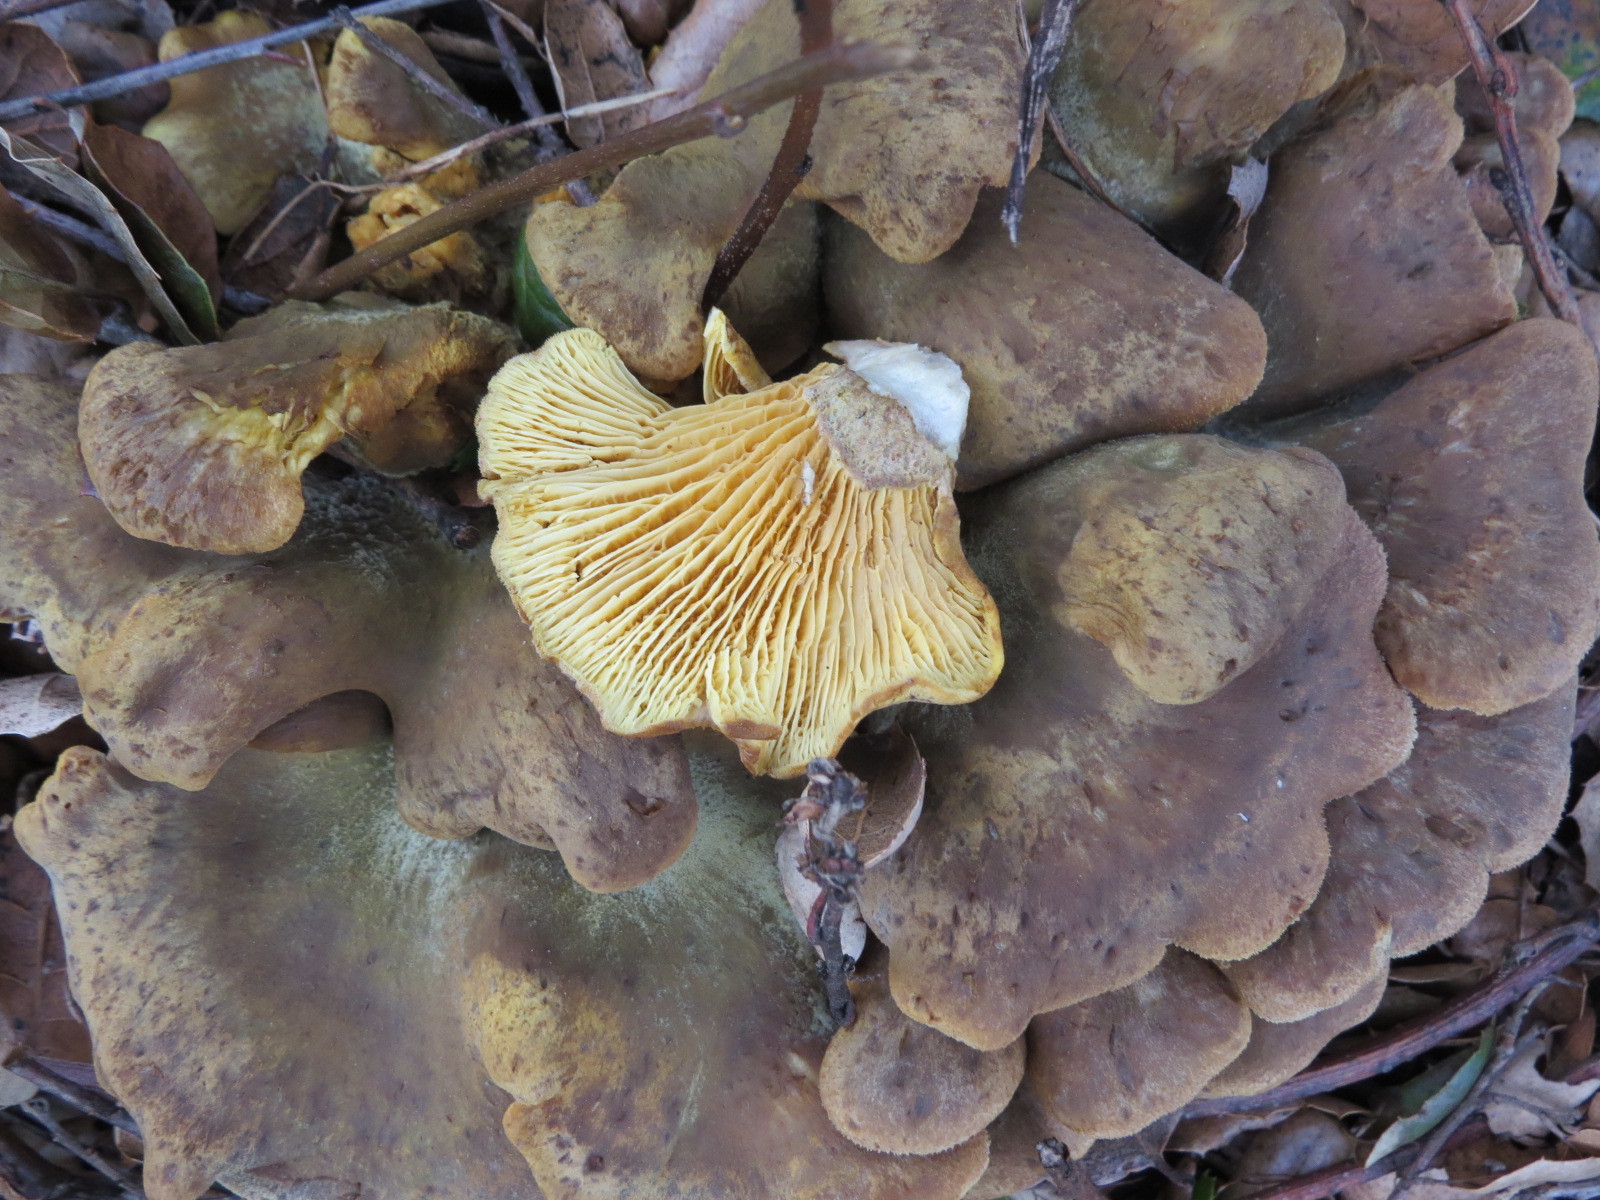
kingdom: Fungi
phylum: Basidiomycota
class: Agaricomycetes
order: Boletales
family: Tapinellaceae
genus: Tapinella
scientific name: Tapinella panuoides
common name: Oyster rollrim
